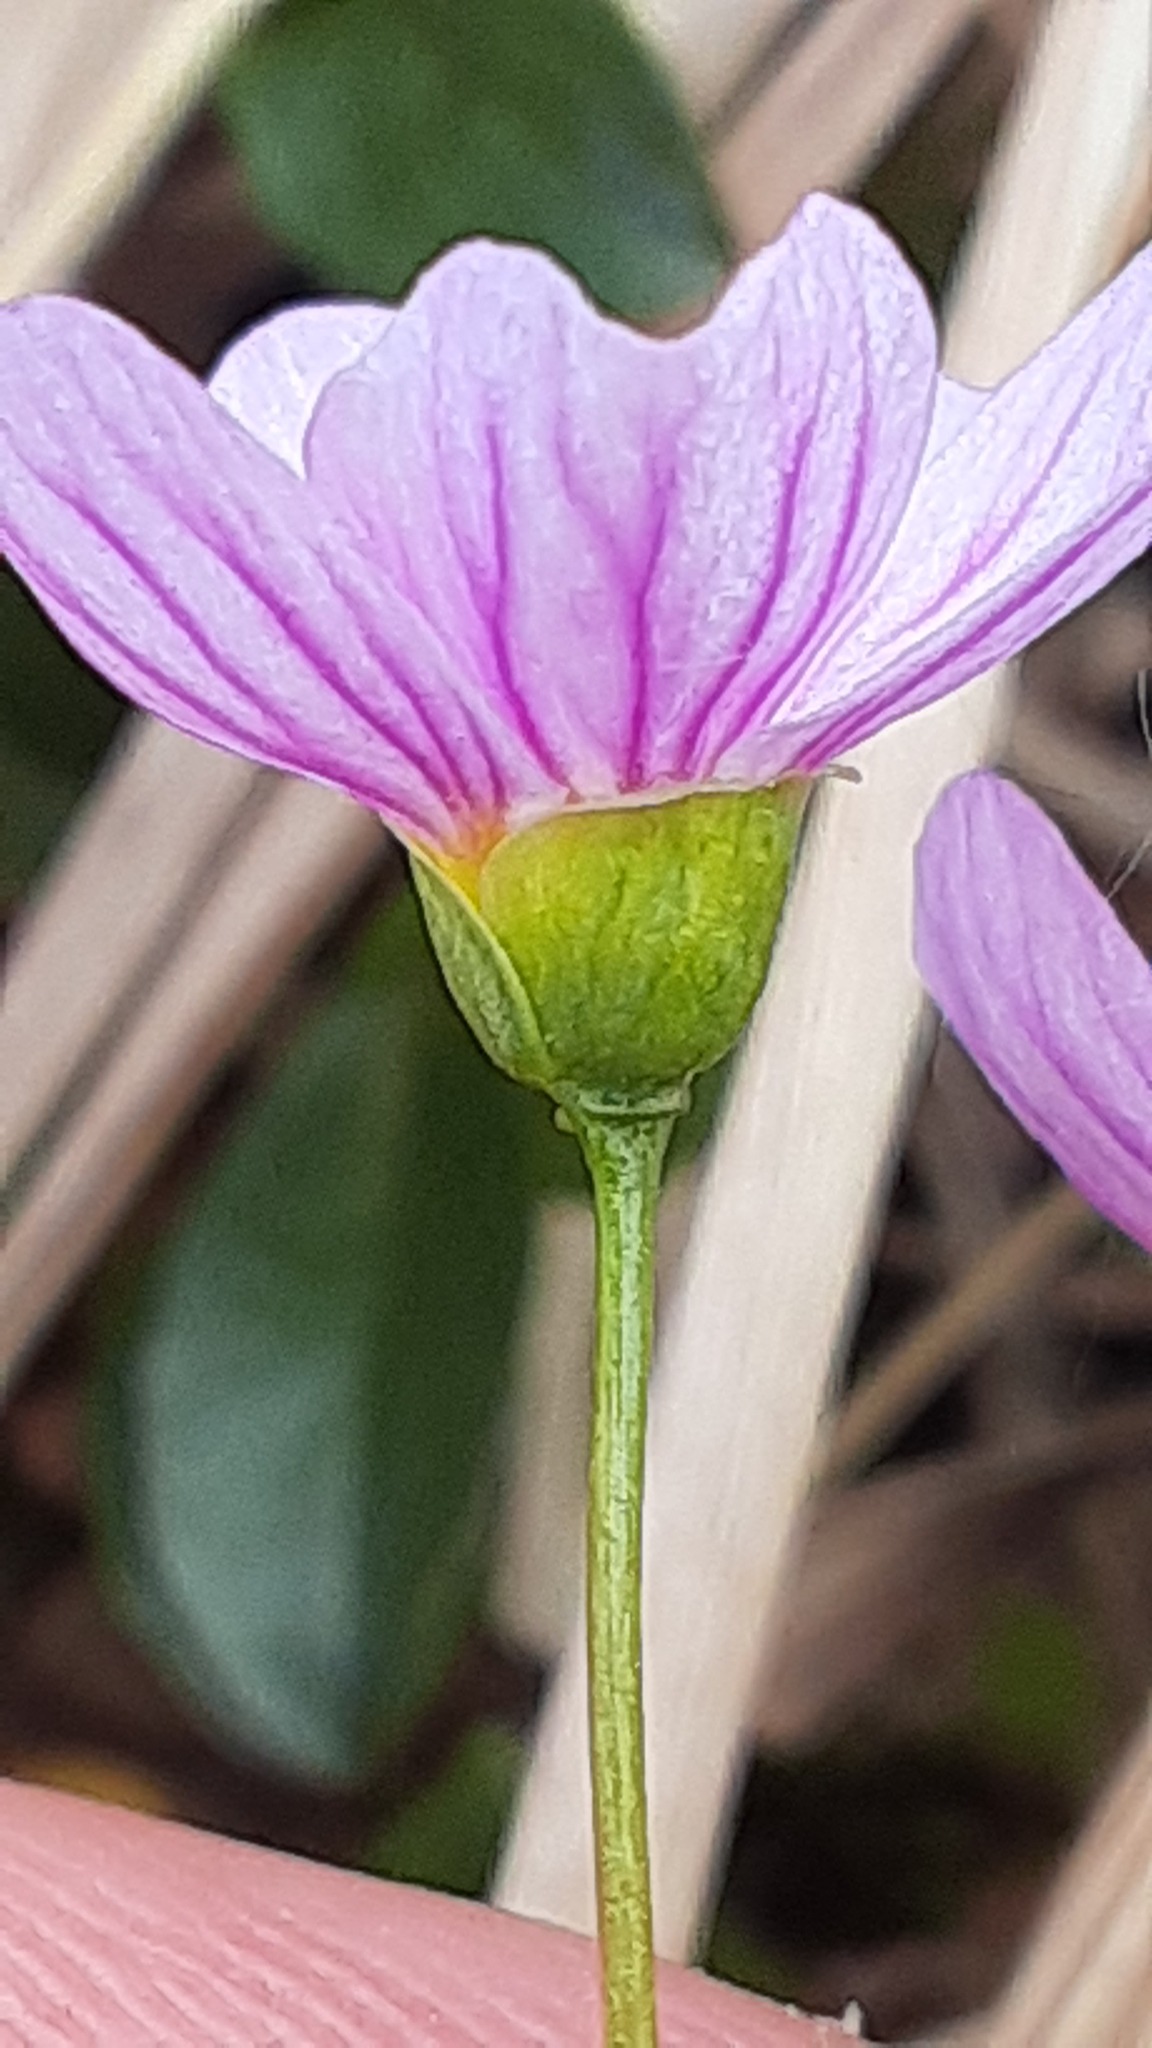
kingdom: Plantae
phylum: Tracheophyta
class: Magnoliopsida
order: Caryophyllales
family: Montiaceae
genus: Claytonia
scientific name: Claytonia sarmentosa
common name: Alaska spring beauty
